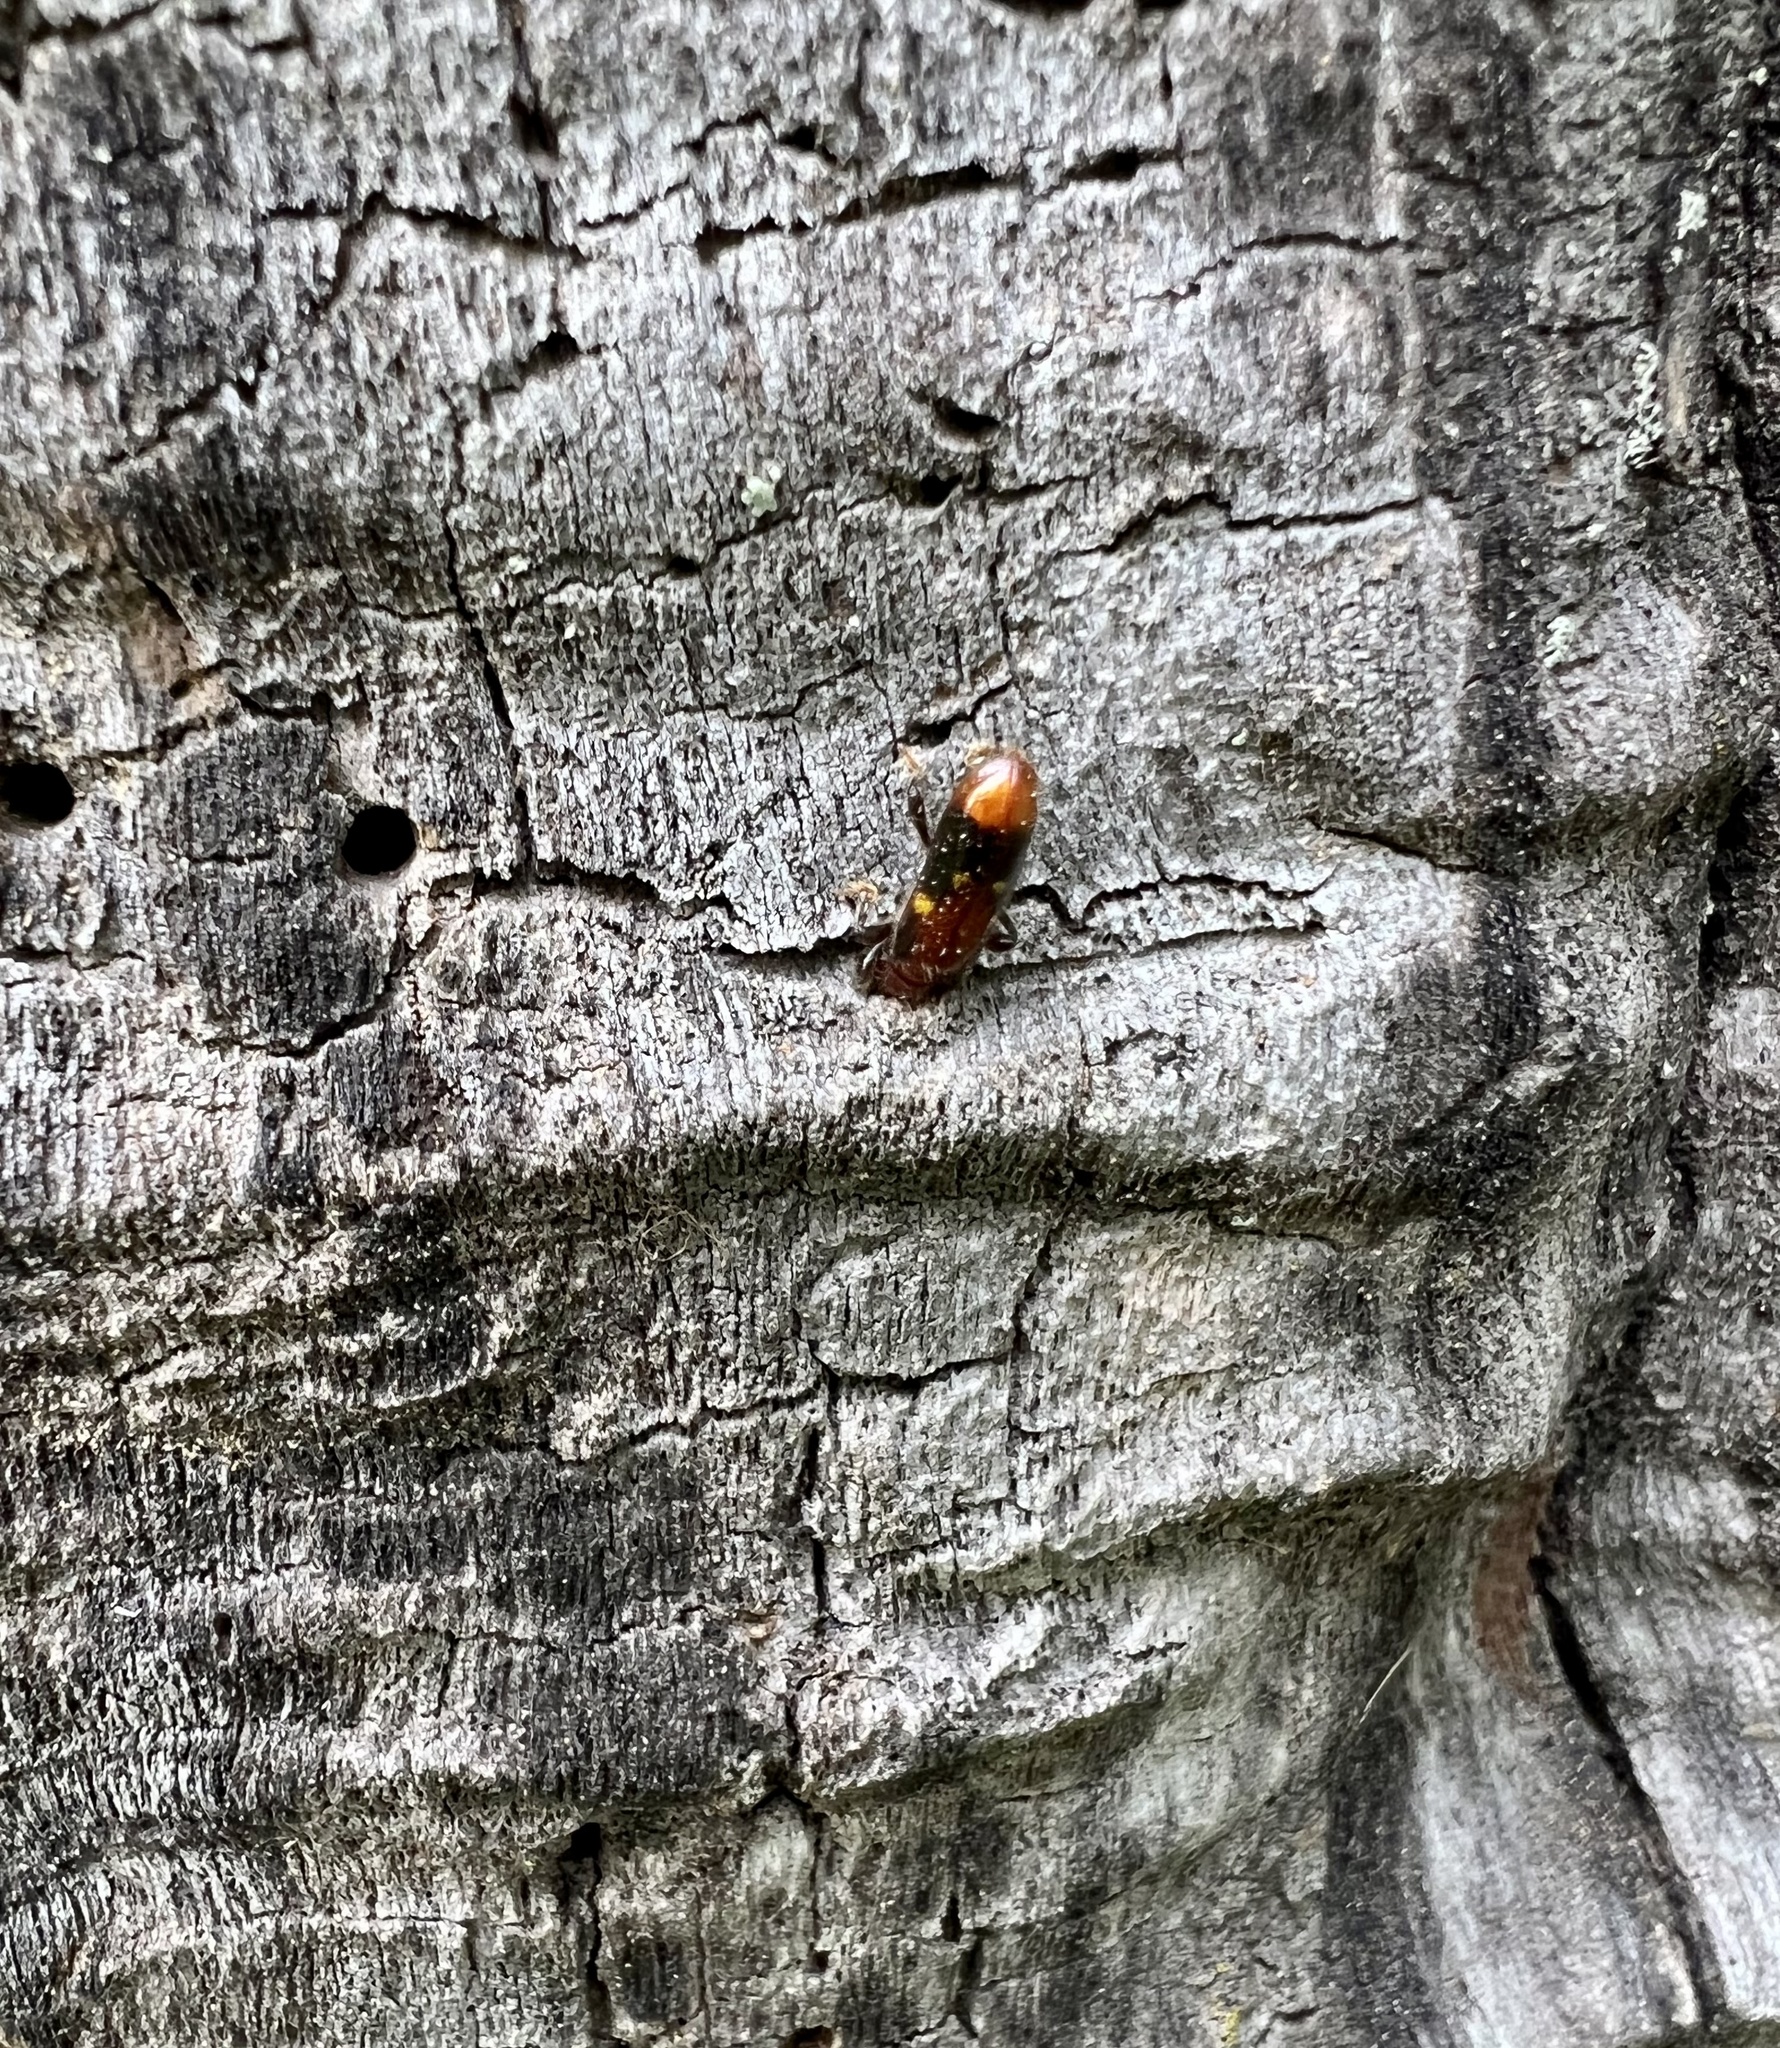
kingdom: Animalia
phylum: Arthropoda
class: Insecta
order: Coleoptera
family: Cleridae
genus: Priocera
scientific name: Priocera castanea
